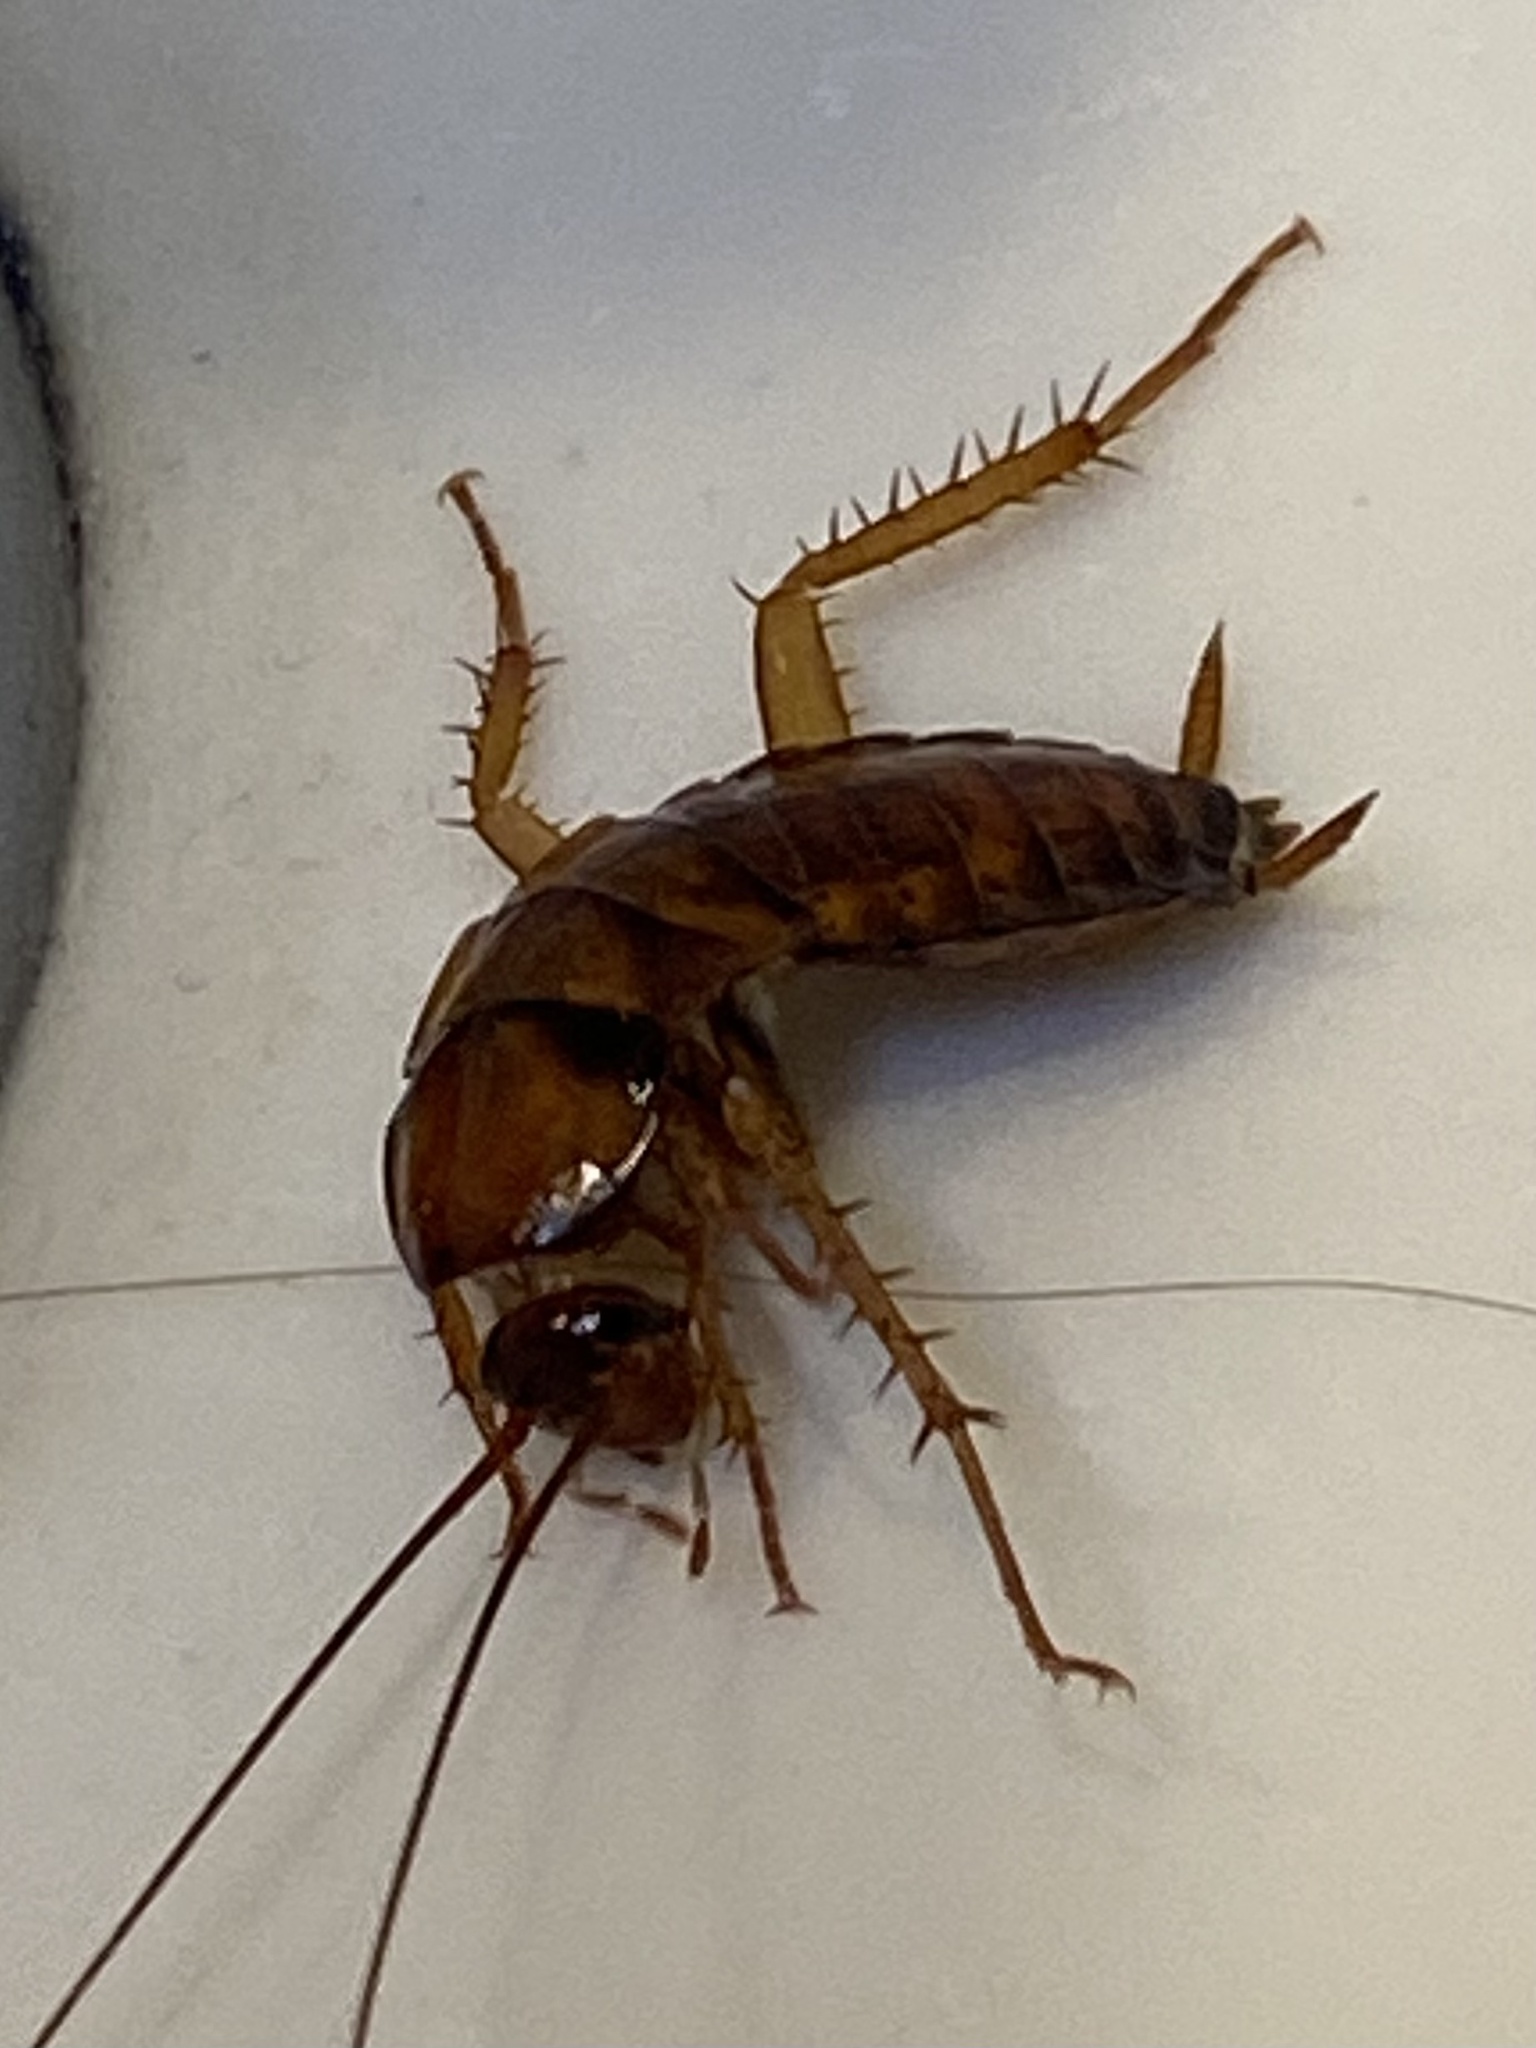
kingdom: Animalia
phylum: Arthropoda
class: Insecta
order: Blattodea
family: Blattidae
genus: Periplaneta
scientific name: Periplaneta americana
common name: American cockroach
